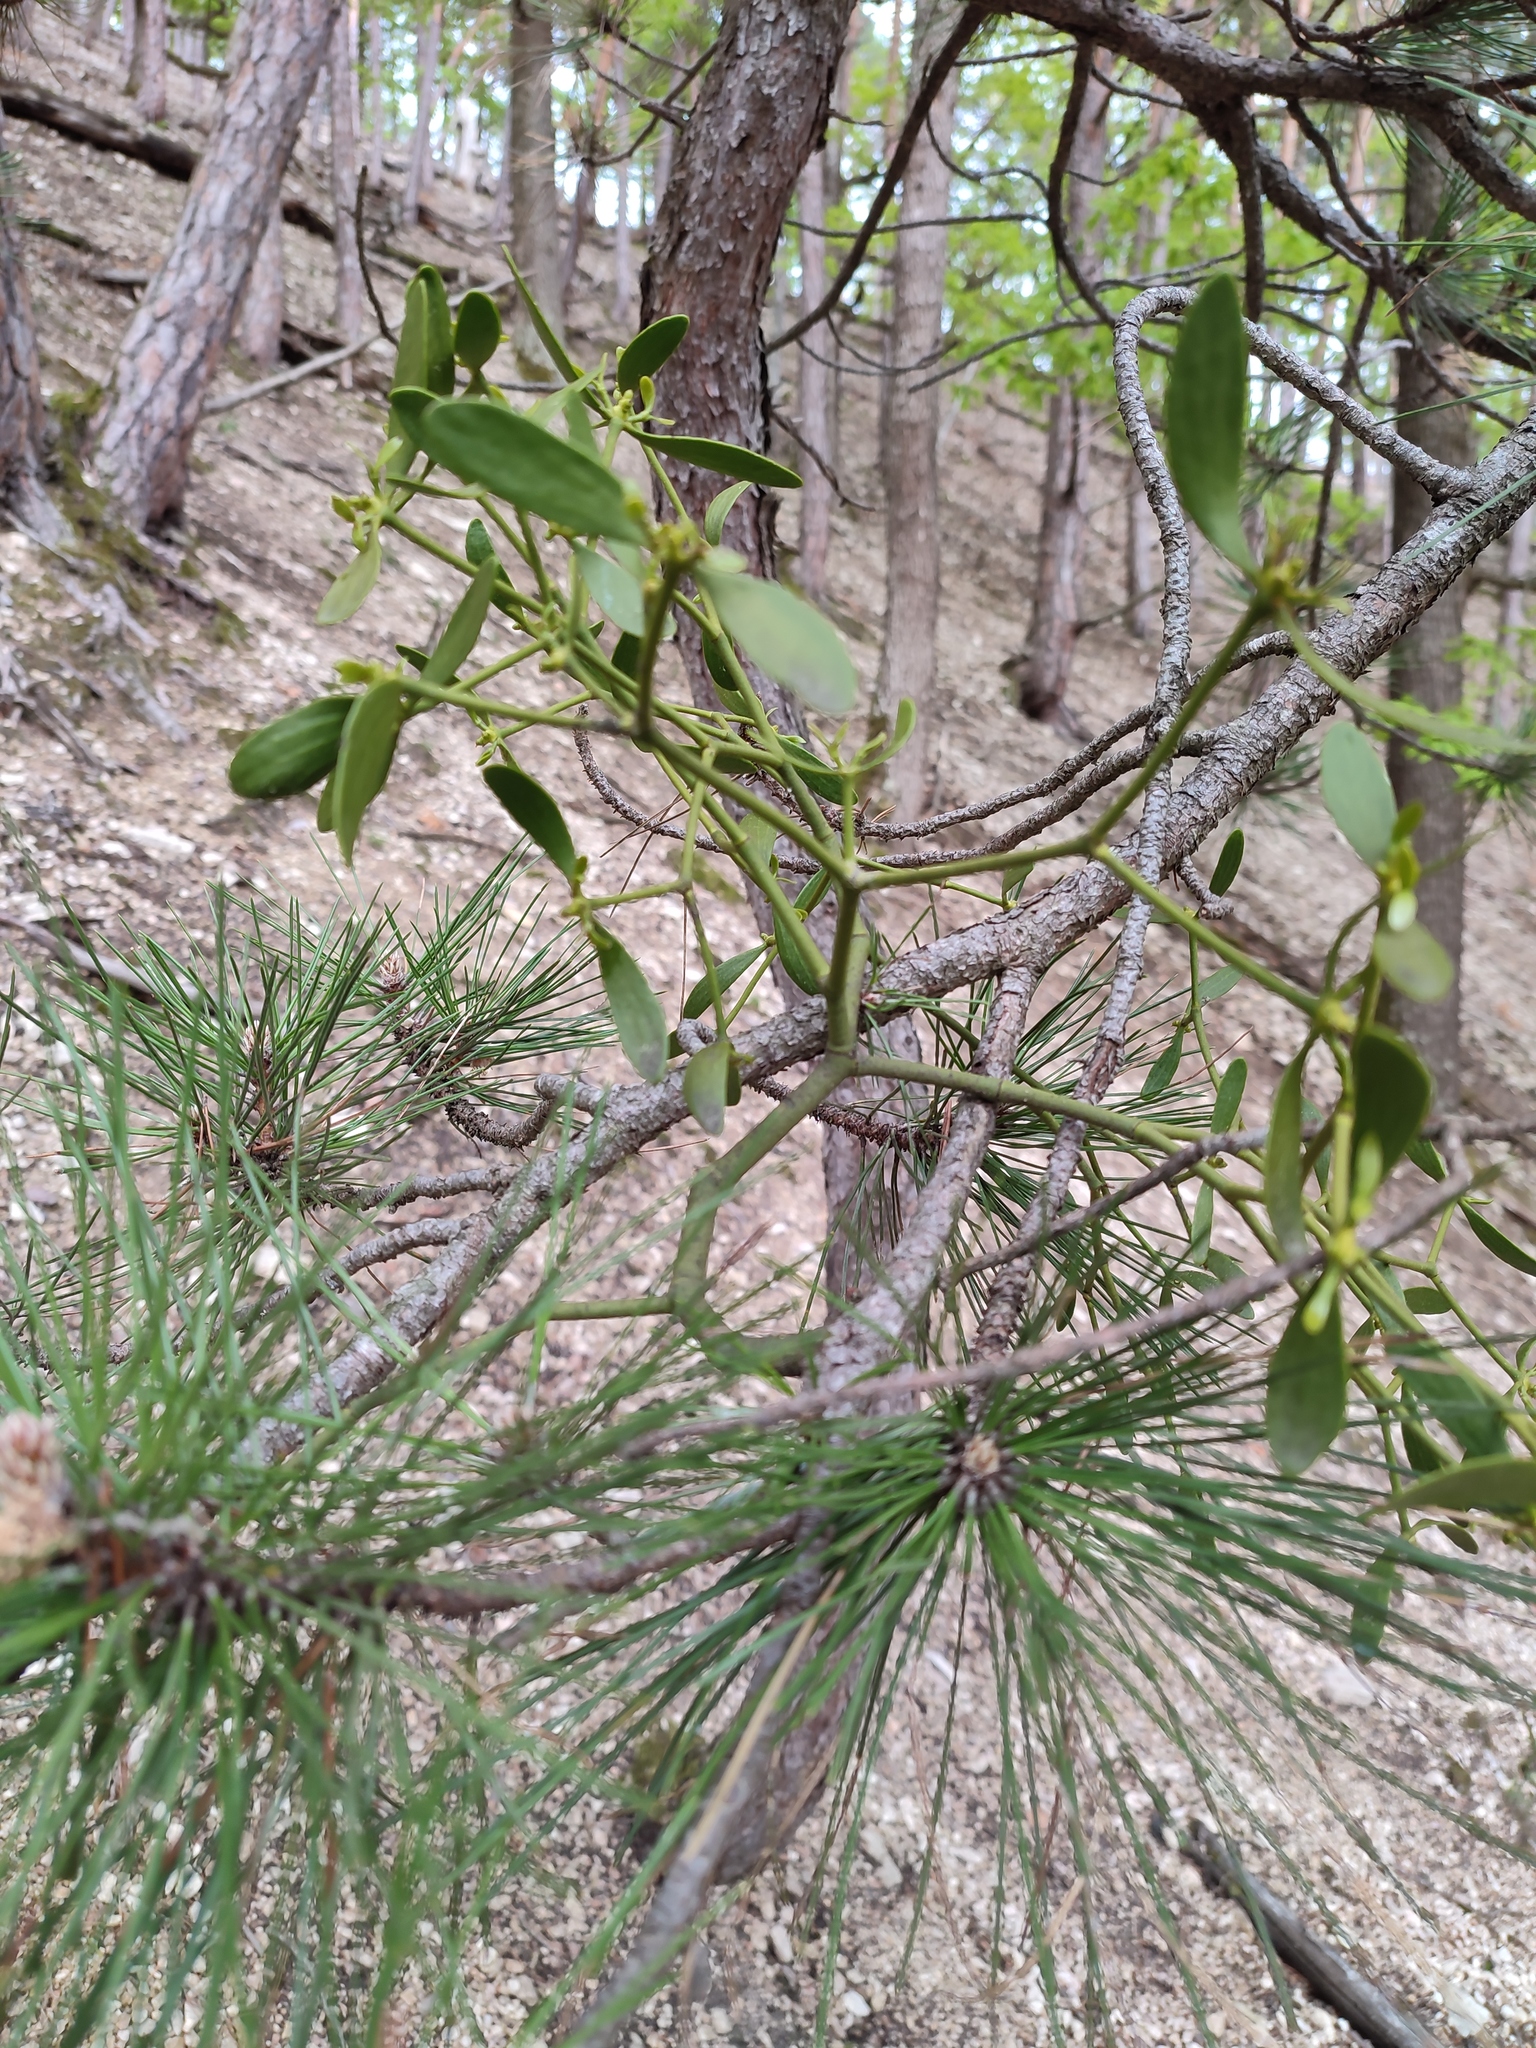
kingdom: Plantae
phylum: Tracheophyta
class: Magnoliopsida
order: Santalales
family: Viscaceae
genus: Viscum
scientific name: Viscum laxum
